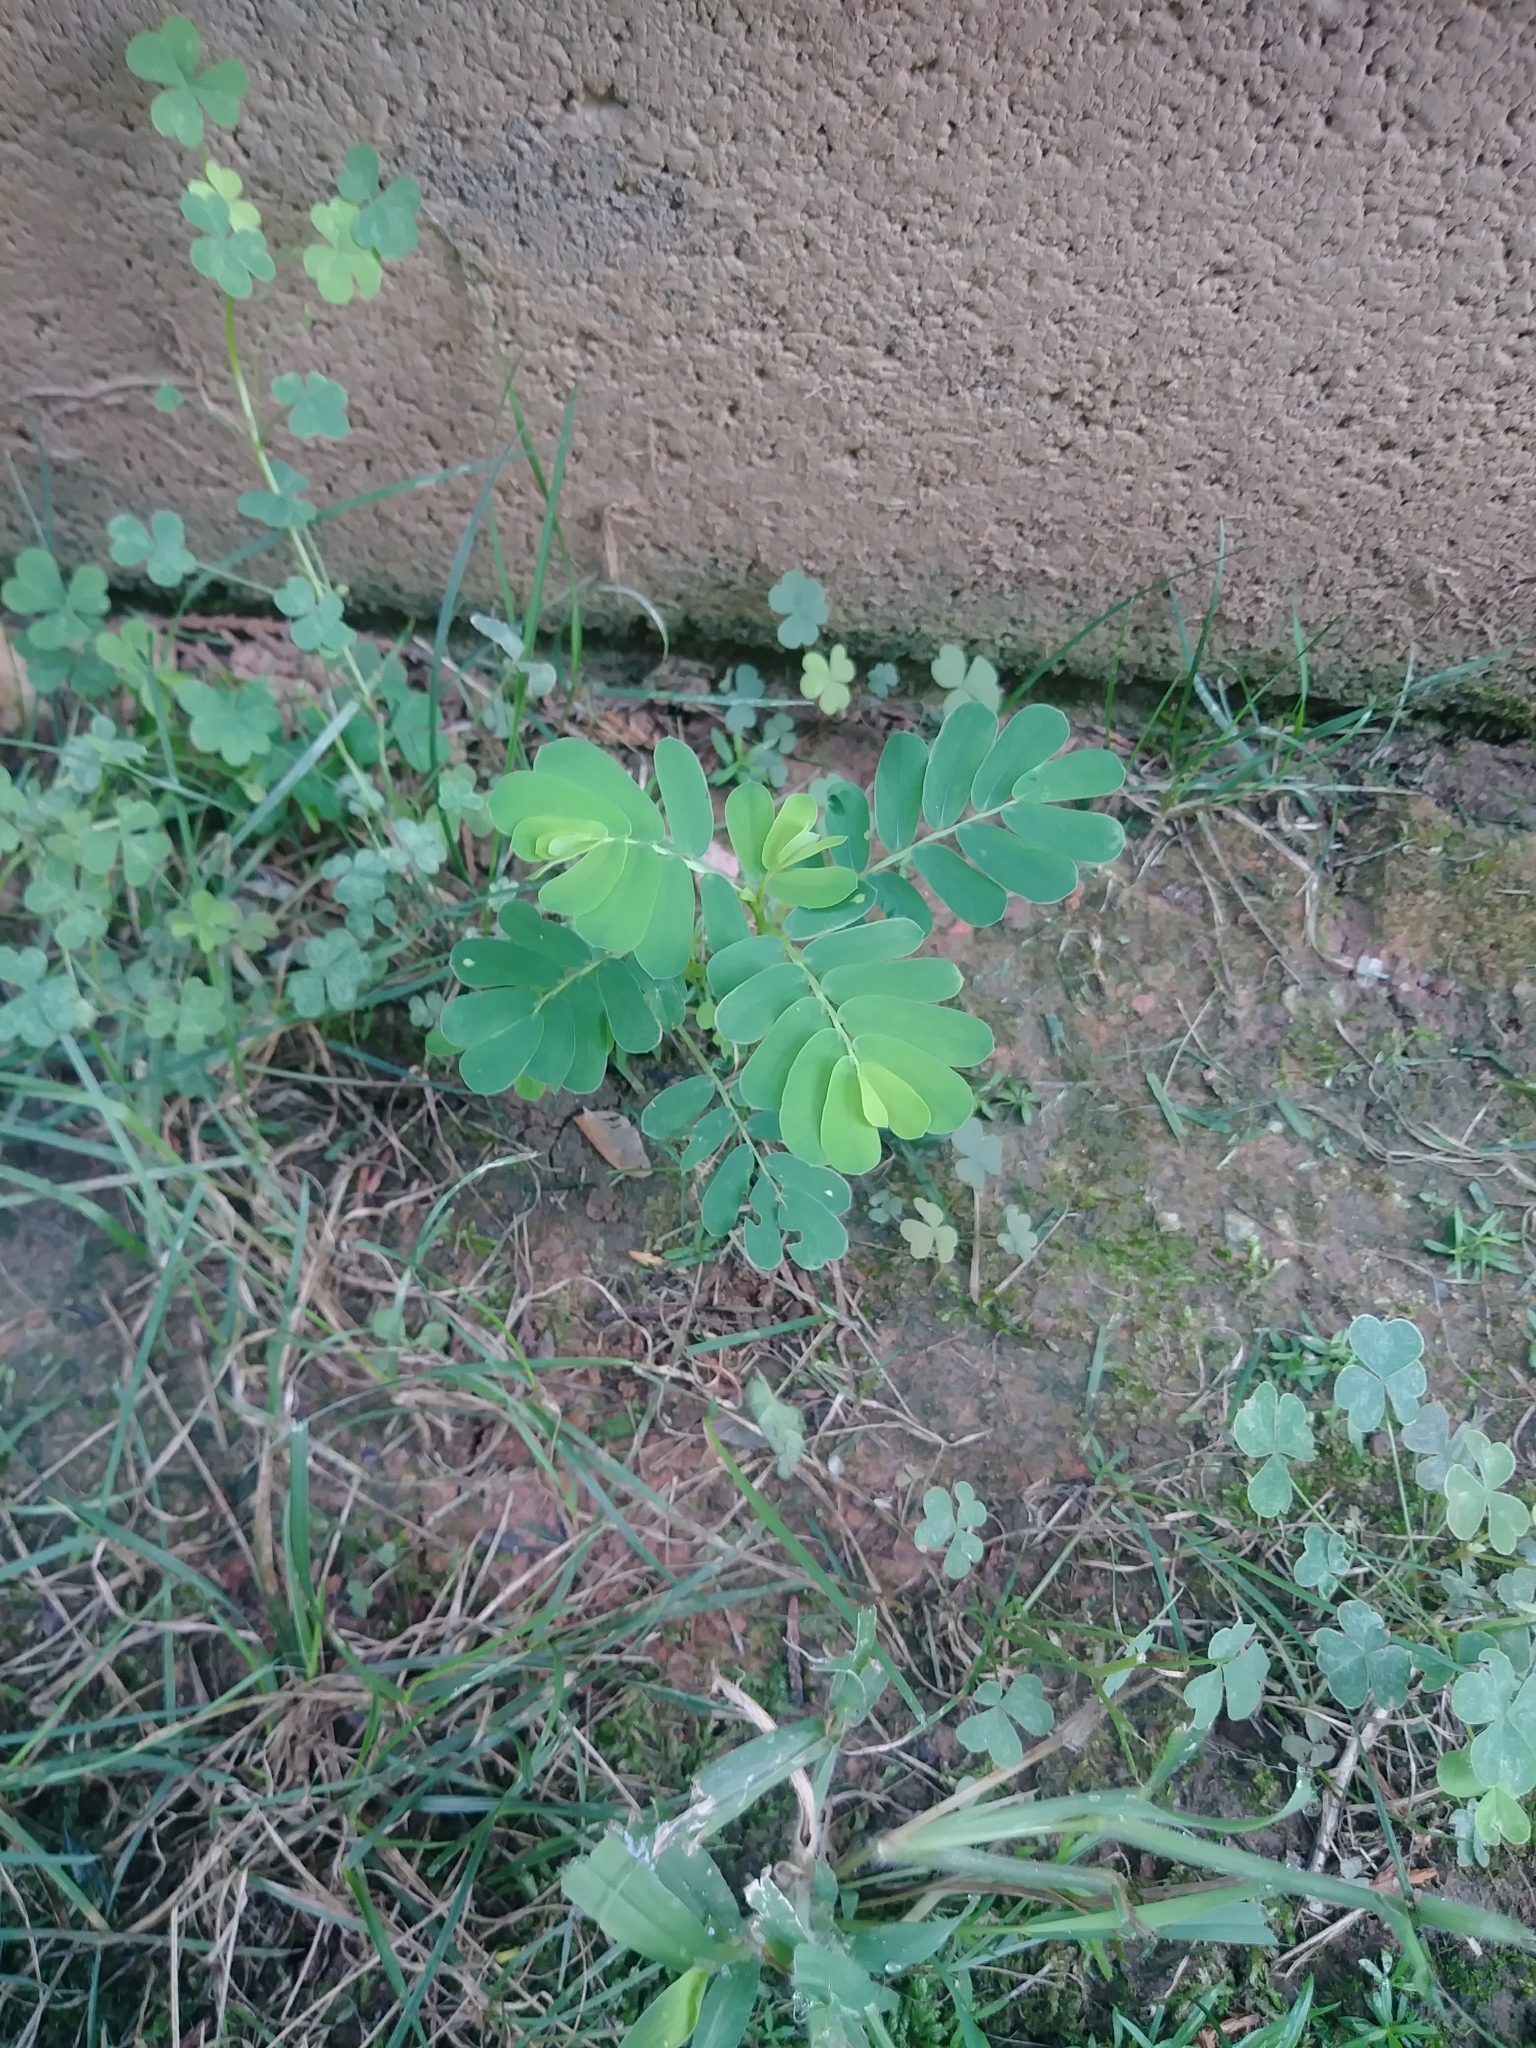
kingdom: Plantae
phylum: Tracheophyta
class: Magnoliopsida
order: Malpighiales
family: Phyllanthaceae
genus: Phyllanthus
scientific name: Phyllanthus urinaria
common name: Chamber bitter
